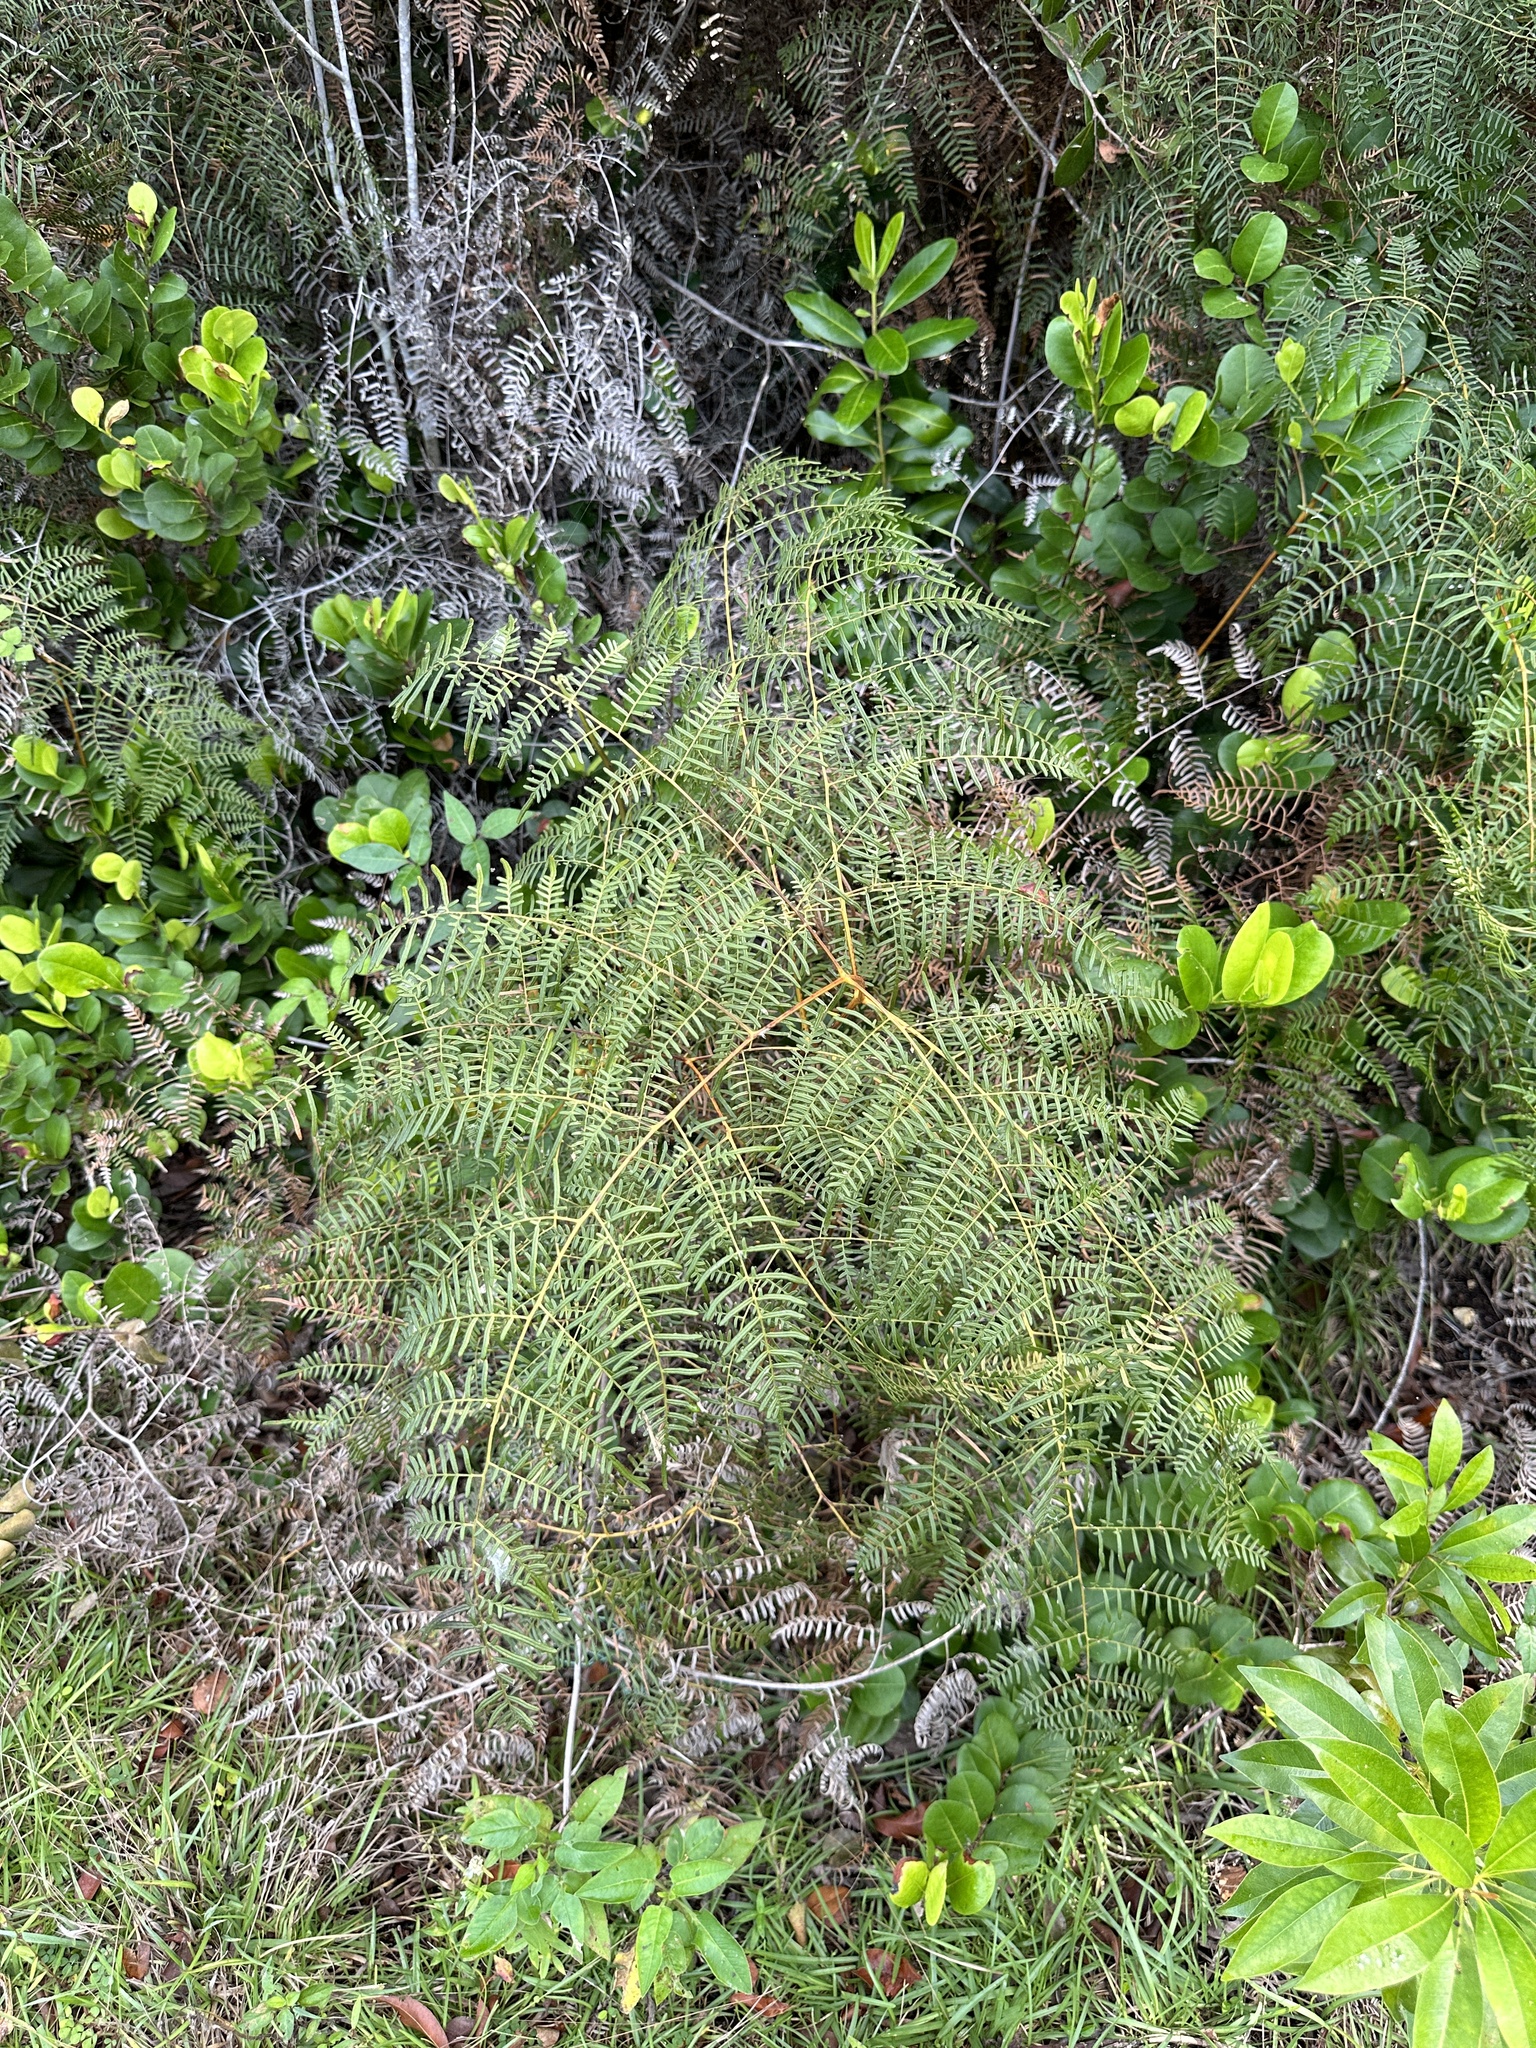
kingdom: Plantae
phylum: Tracheophyta
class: Polypodiopsida
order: Polypodiales
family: Dennstaedtiaceae
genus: Pteridium
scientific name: Pteridium caudatum
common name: Southern bracken fern
